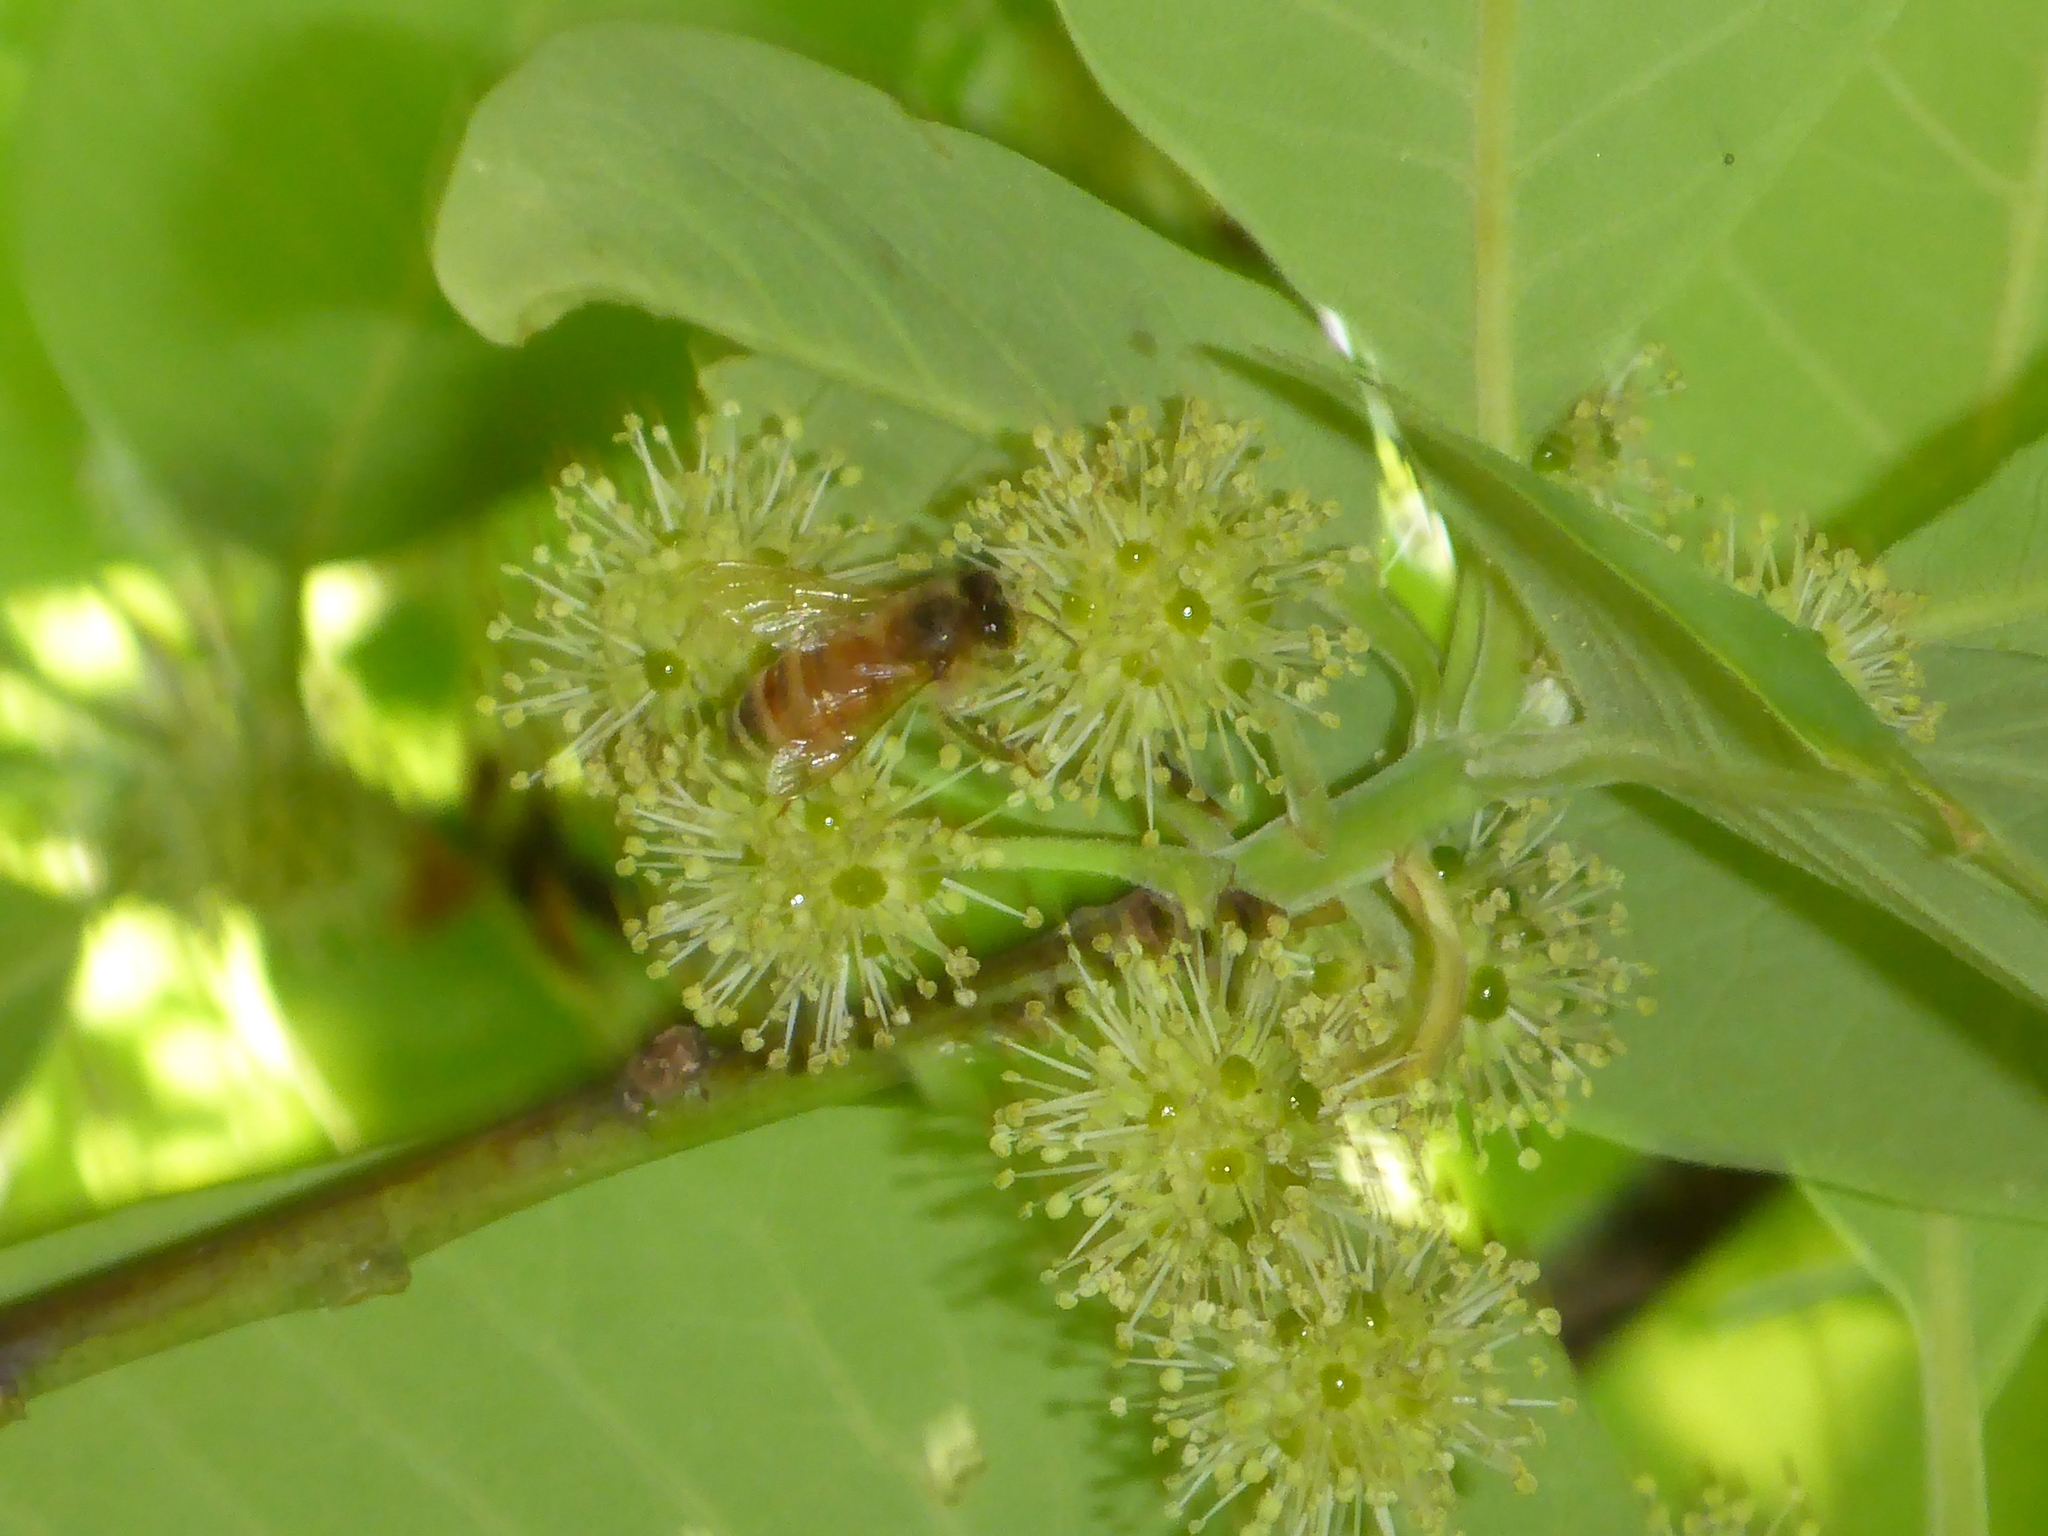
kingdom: Animalia
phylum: Arthropoda
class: Insecta
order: Hymenoptera
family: Apidae
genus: Apis
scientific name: Apis mellifera
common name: Honey bee
